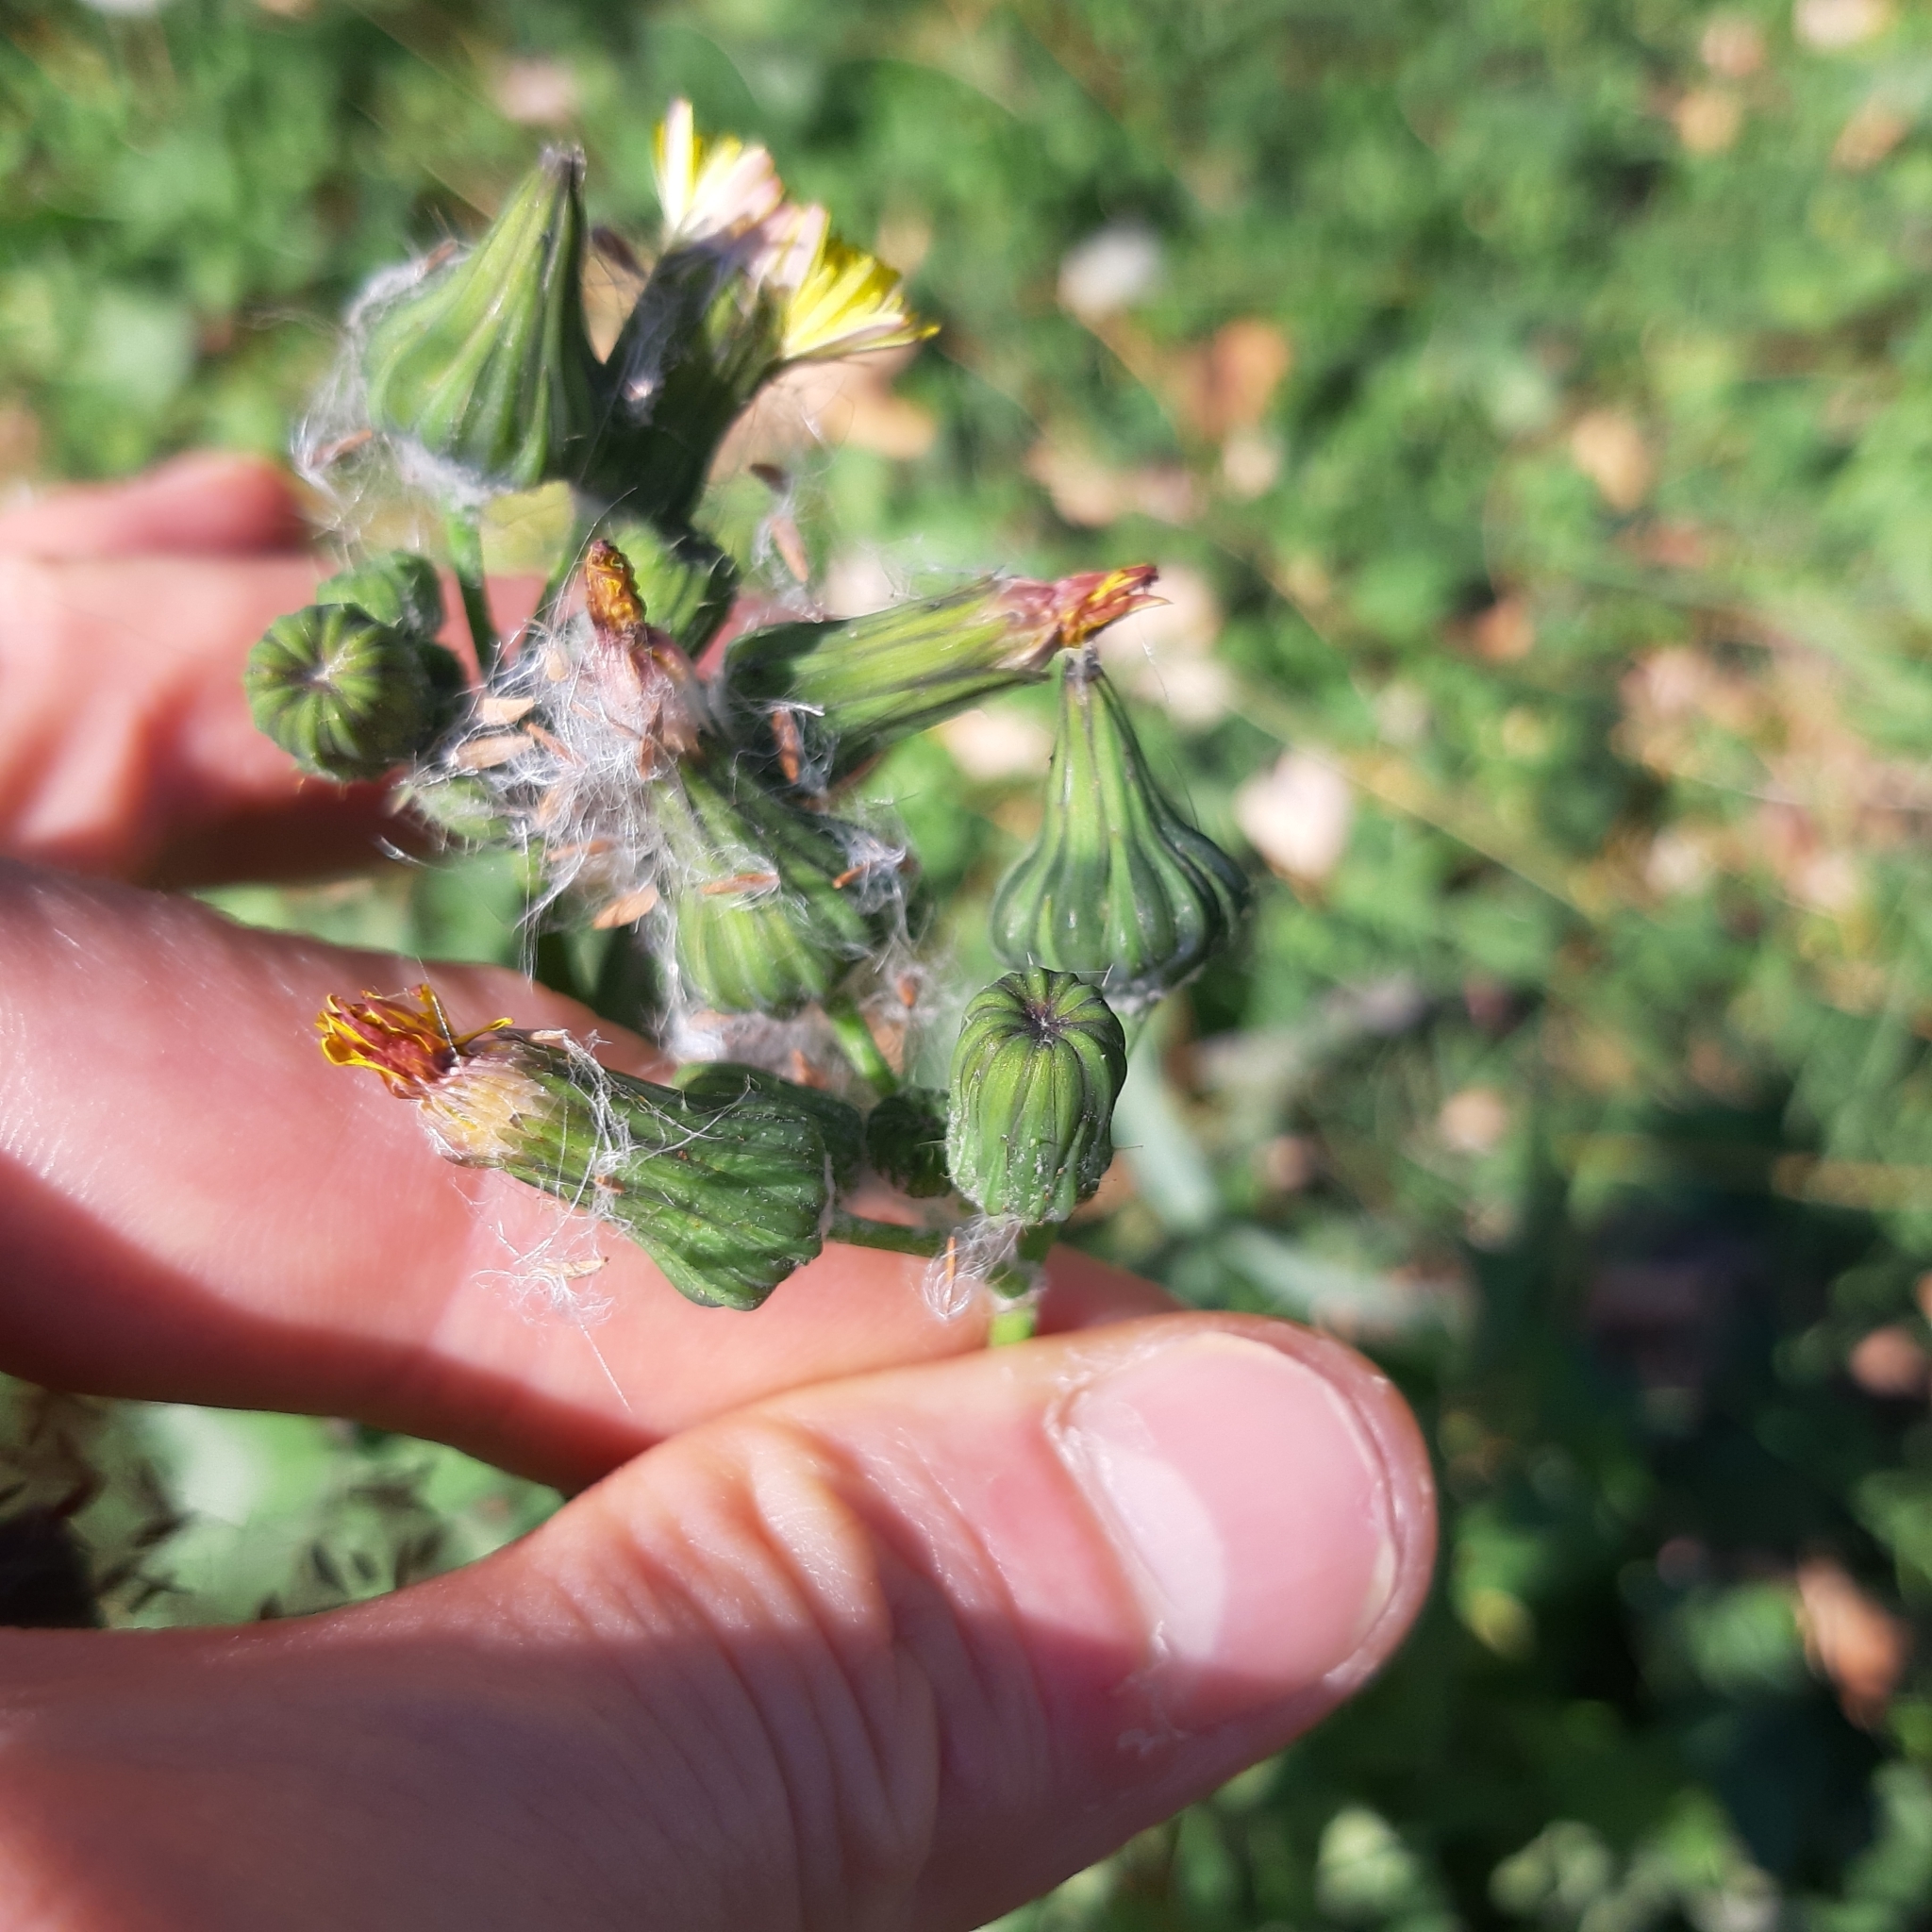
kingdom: Plantae
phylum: Tracheophyta
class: Magnoliopsida
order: Asterales
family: Asteraceae
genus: Sonchus
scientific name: Sonchus oleraceus
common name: Common sowthistle
